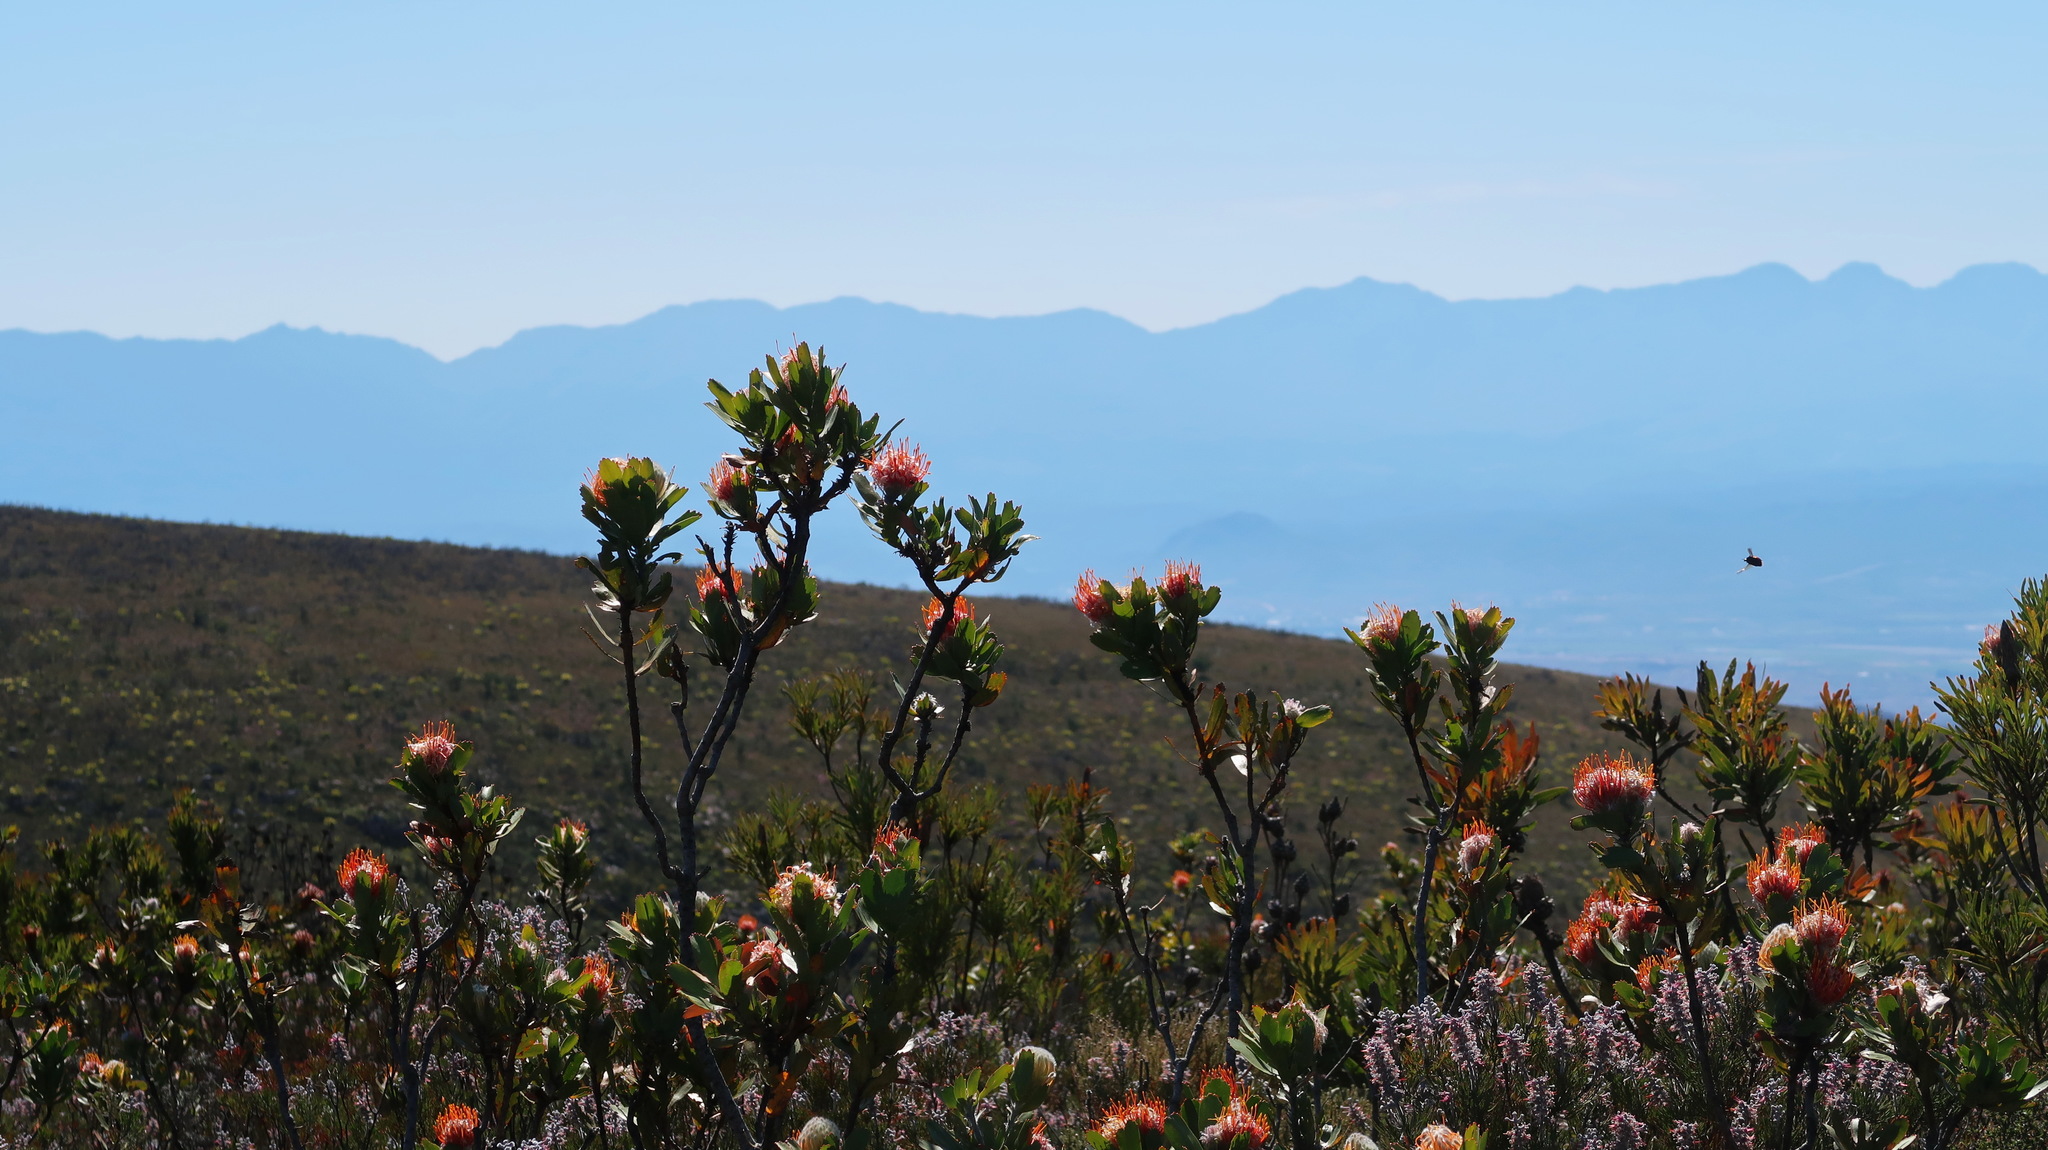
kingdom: Plantae
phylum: Tracheophyta
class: Magnoliopsida
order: Proteales
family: Proteaceae
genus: Leucospermum
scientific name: Leucospermum pluridens
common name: Robinson pincushion
